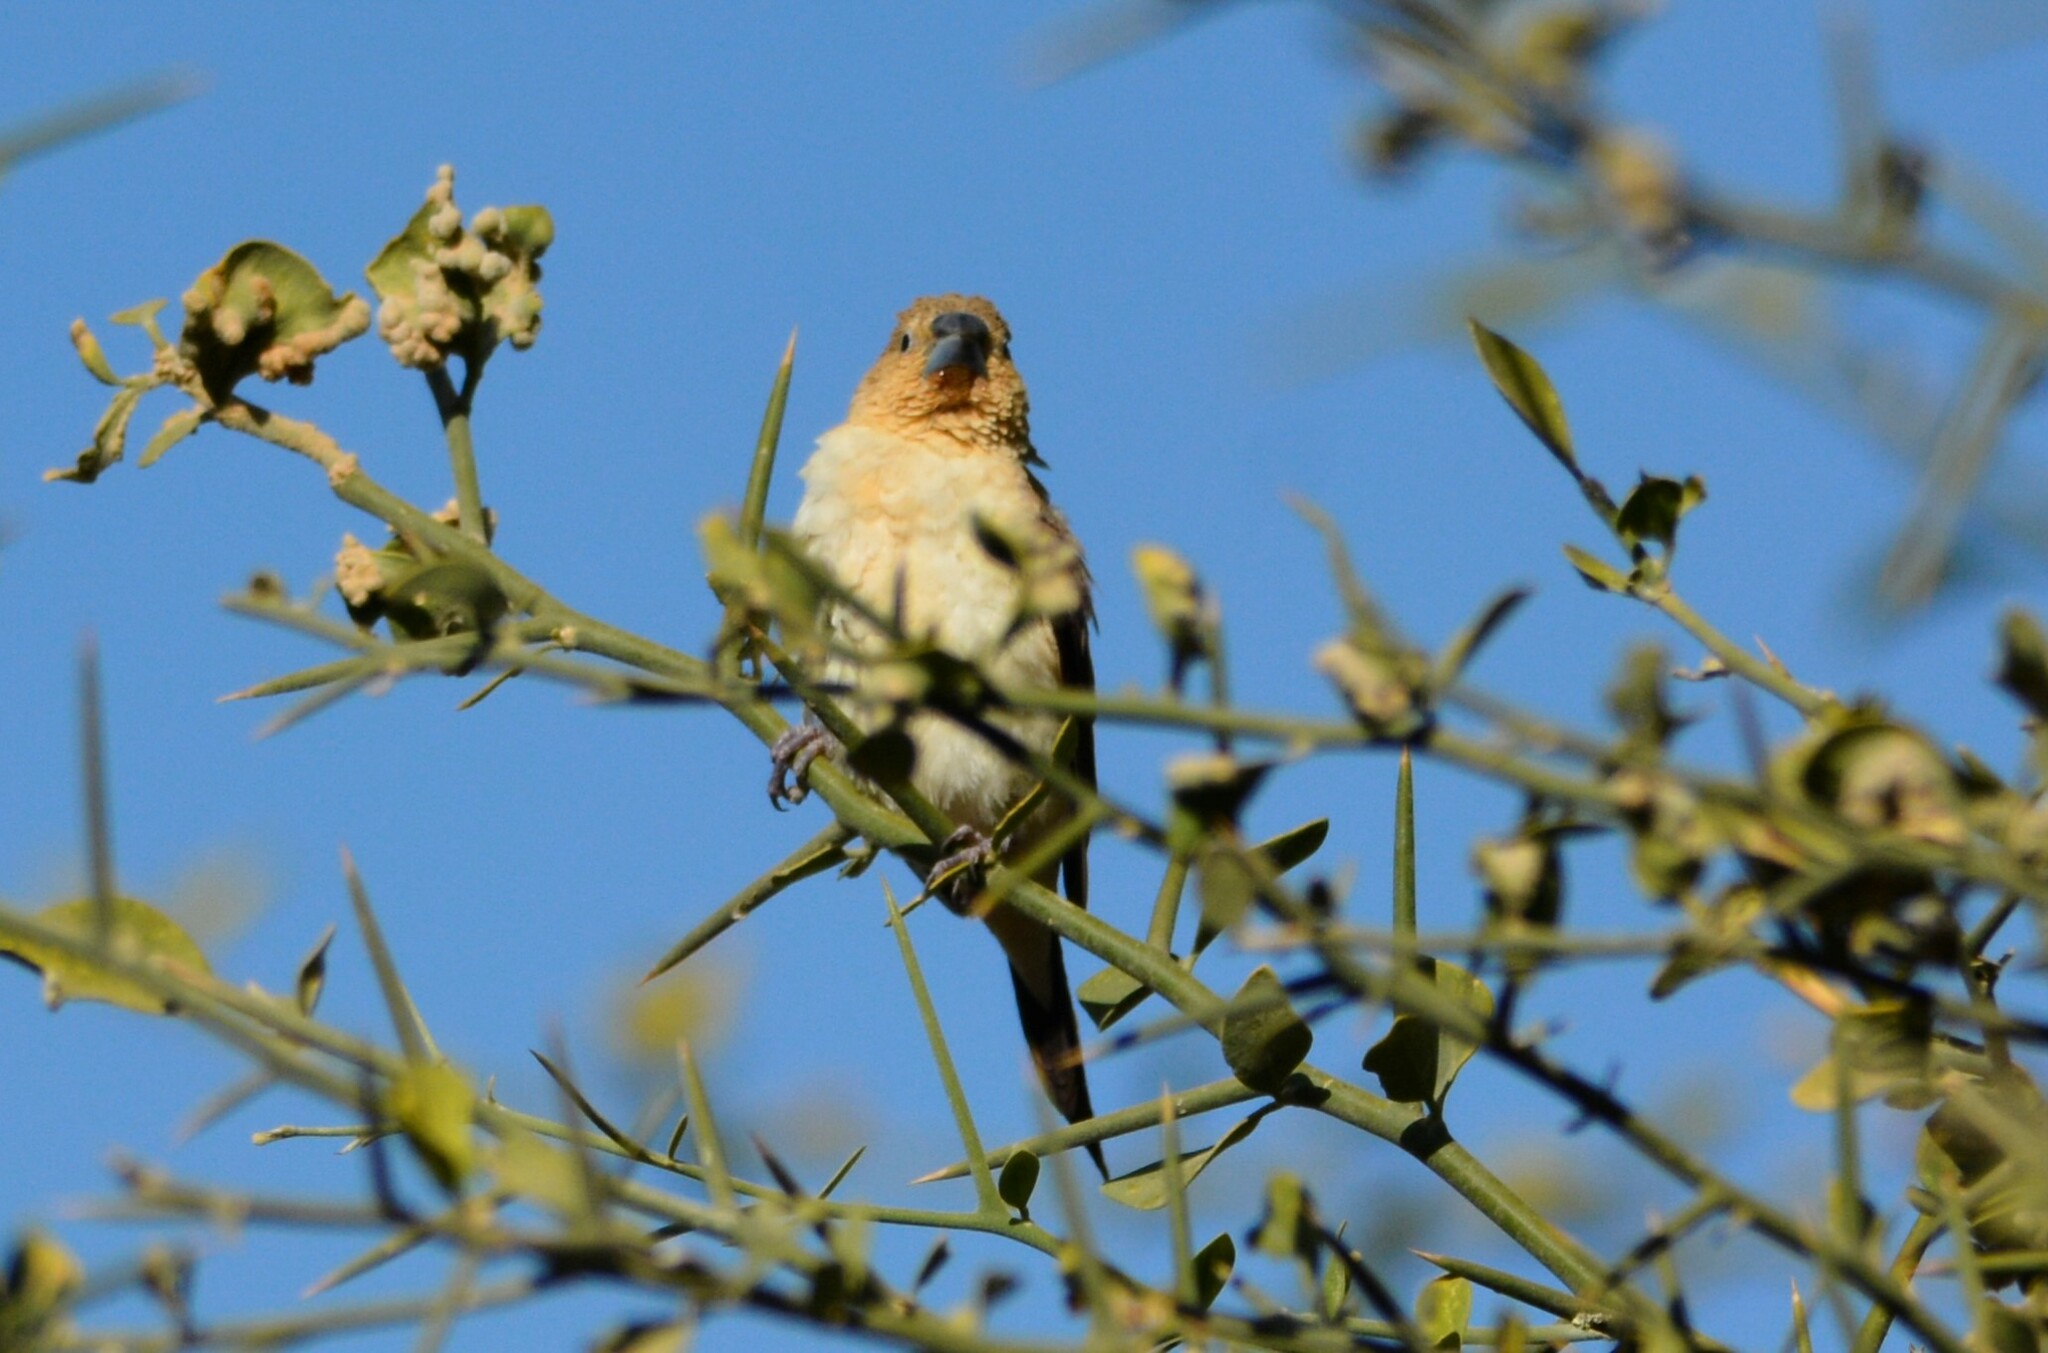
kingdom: Animalia
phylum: Chordata
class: Aves
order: Passeriformes
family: Estrildidae
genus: Euodice
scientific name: Euodice cantans
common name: African silverbill
